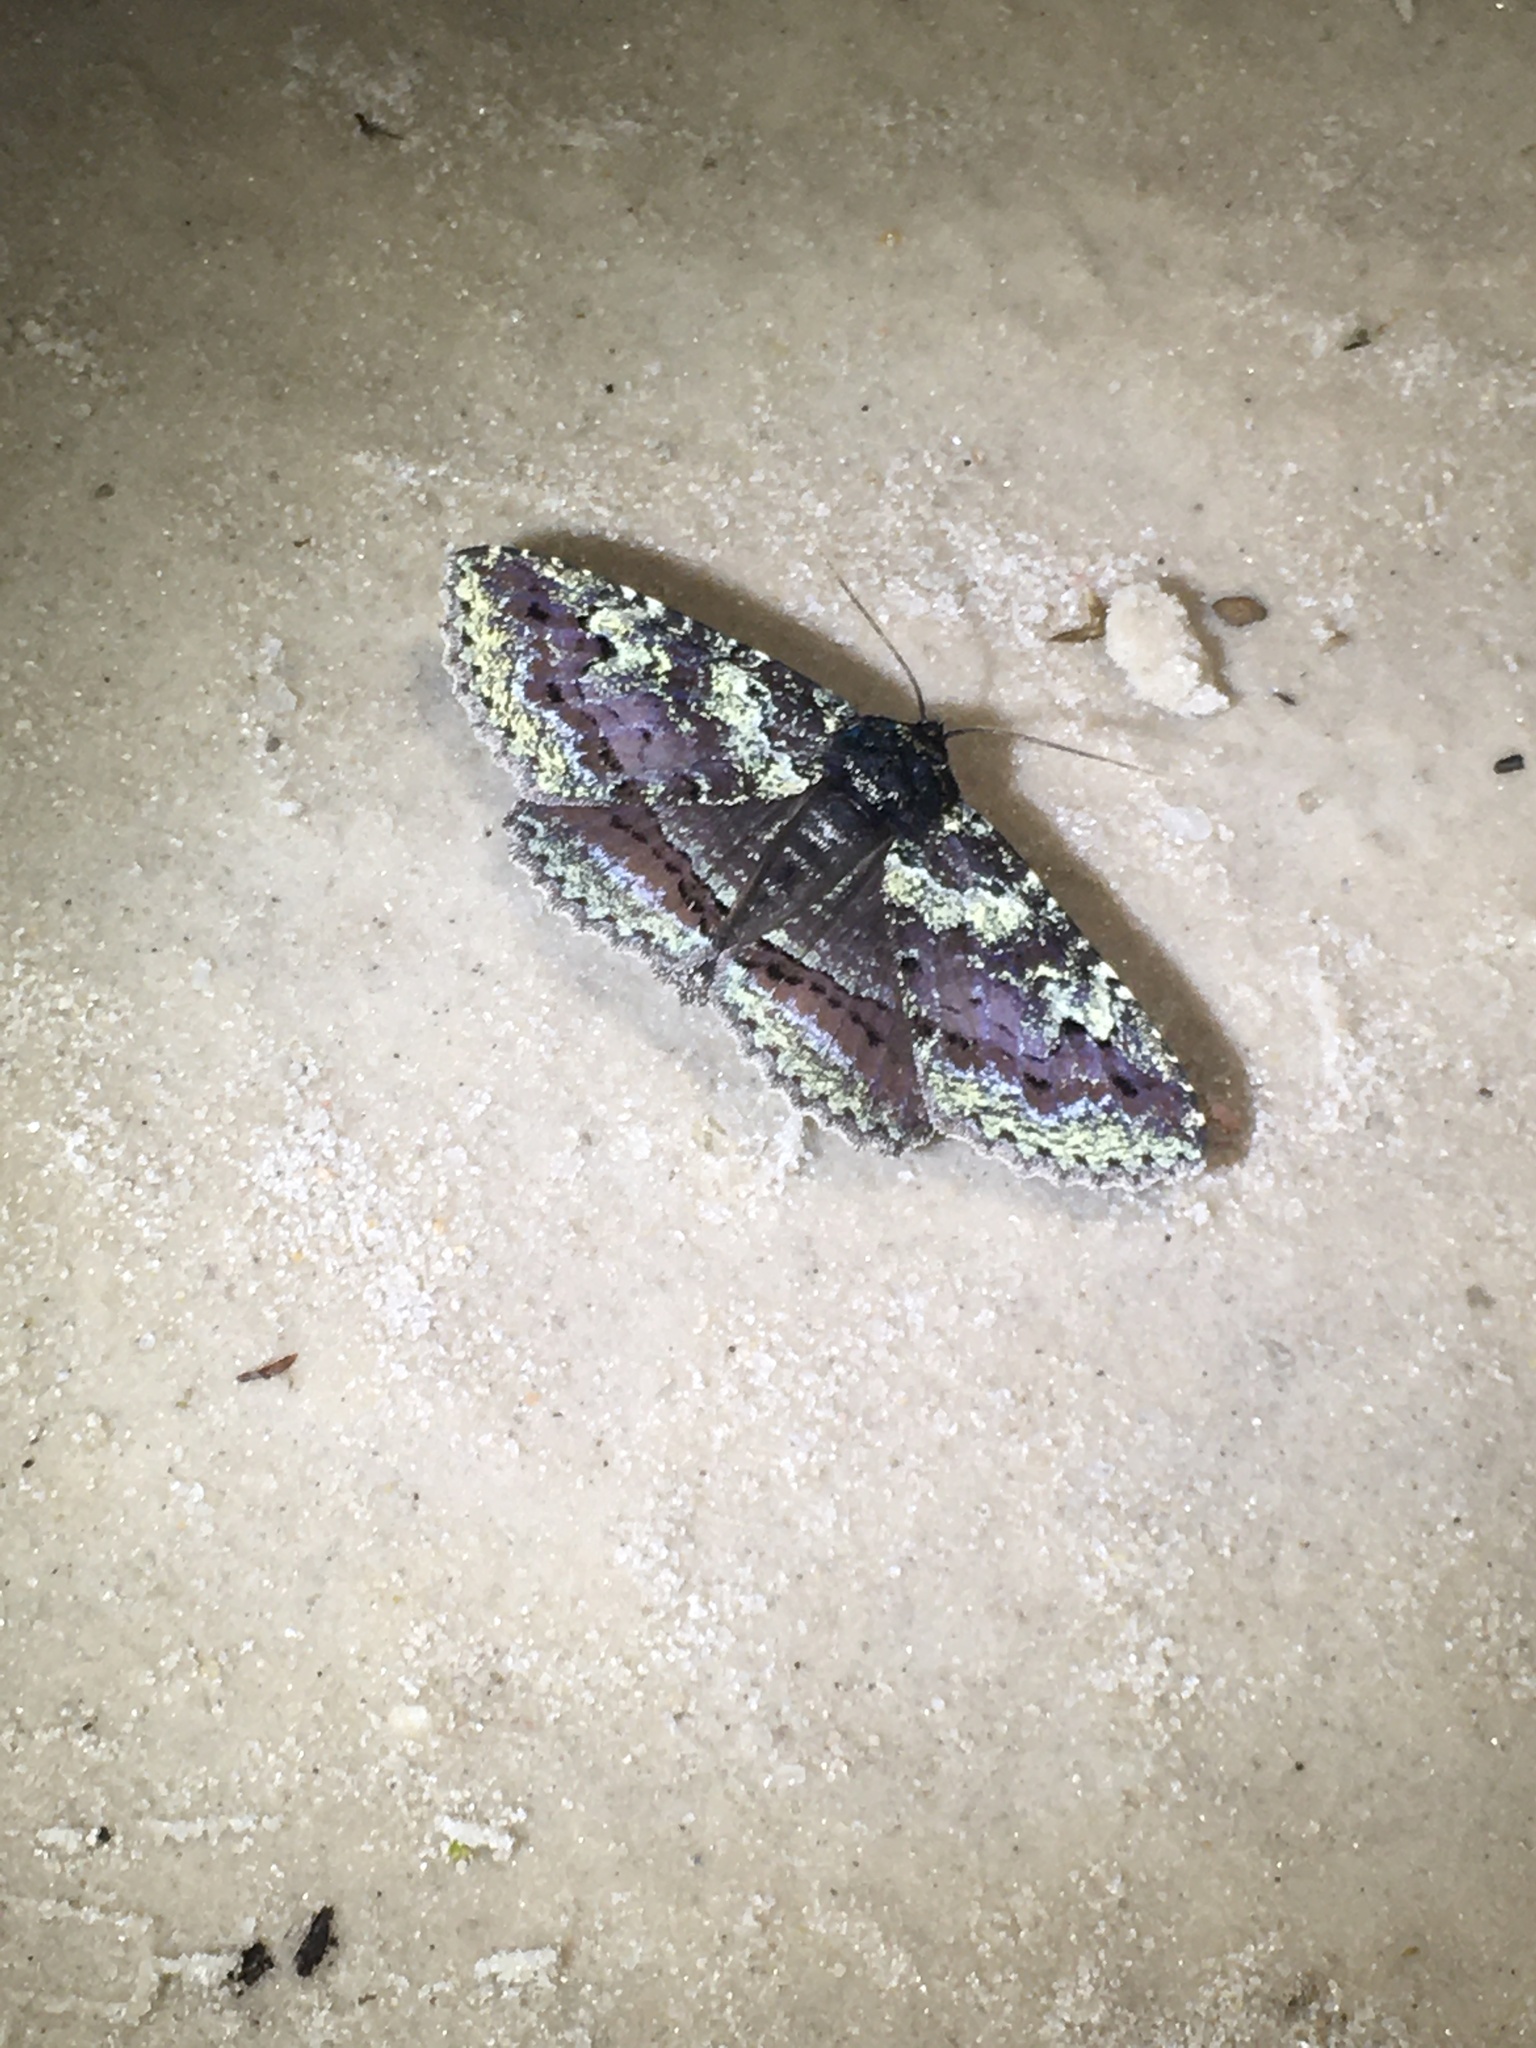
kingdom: Animalia
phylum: Arthropoda
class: Insecta
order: Lepidoptera
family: Erebidae
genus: Zale
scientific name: Zale perculta
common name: Okefenokee zale moth
